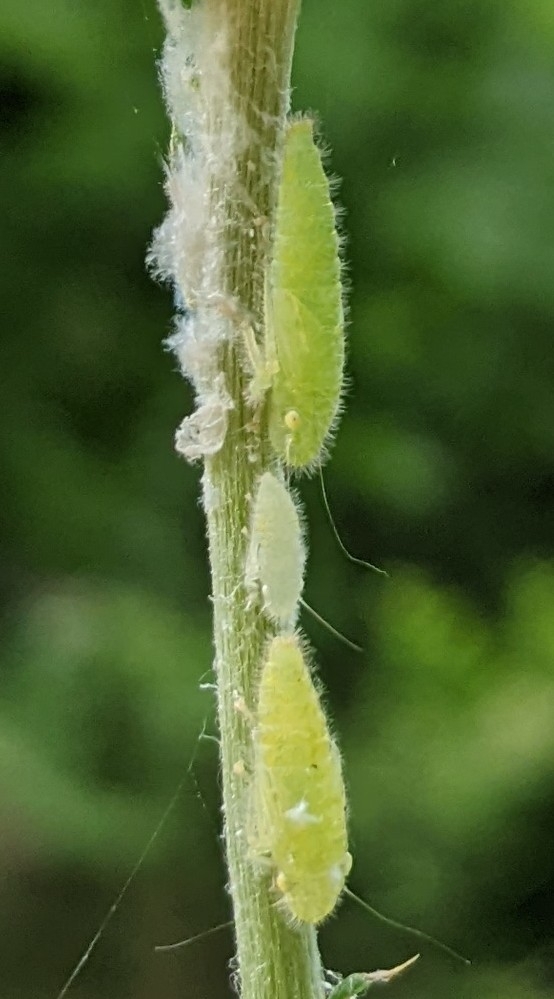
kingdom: Animalia
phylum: Arthropoda
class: Insecta
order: Hemiptera
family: Cicadellidae
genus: Paraulacizes
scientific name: Paraulacizes irrorata
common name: Speckled sharpshooter
